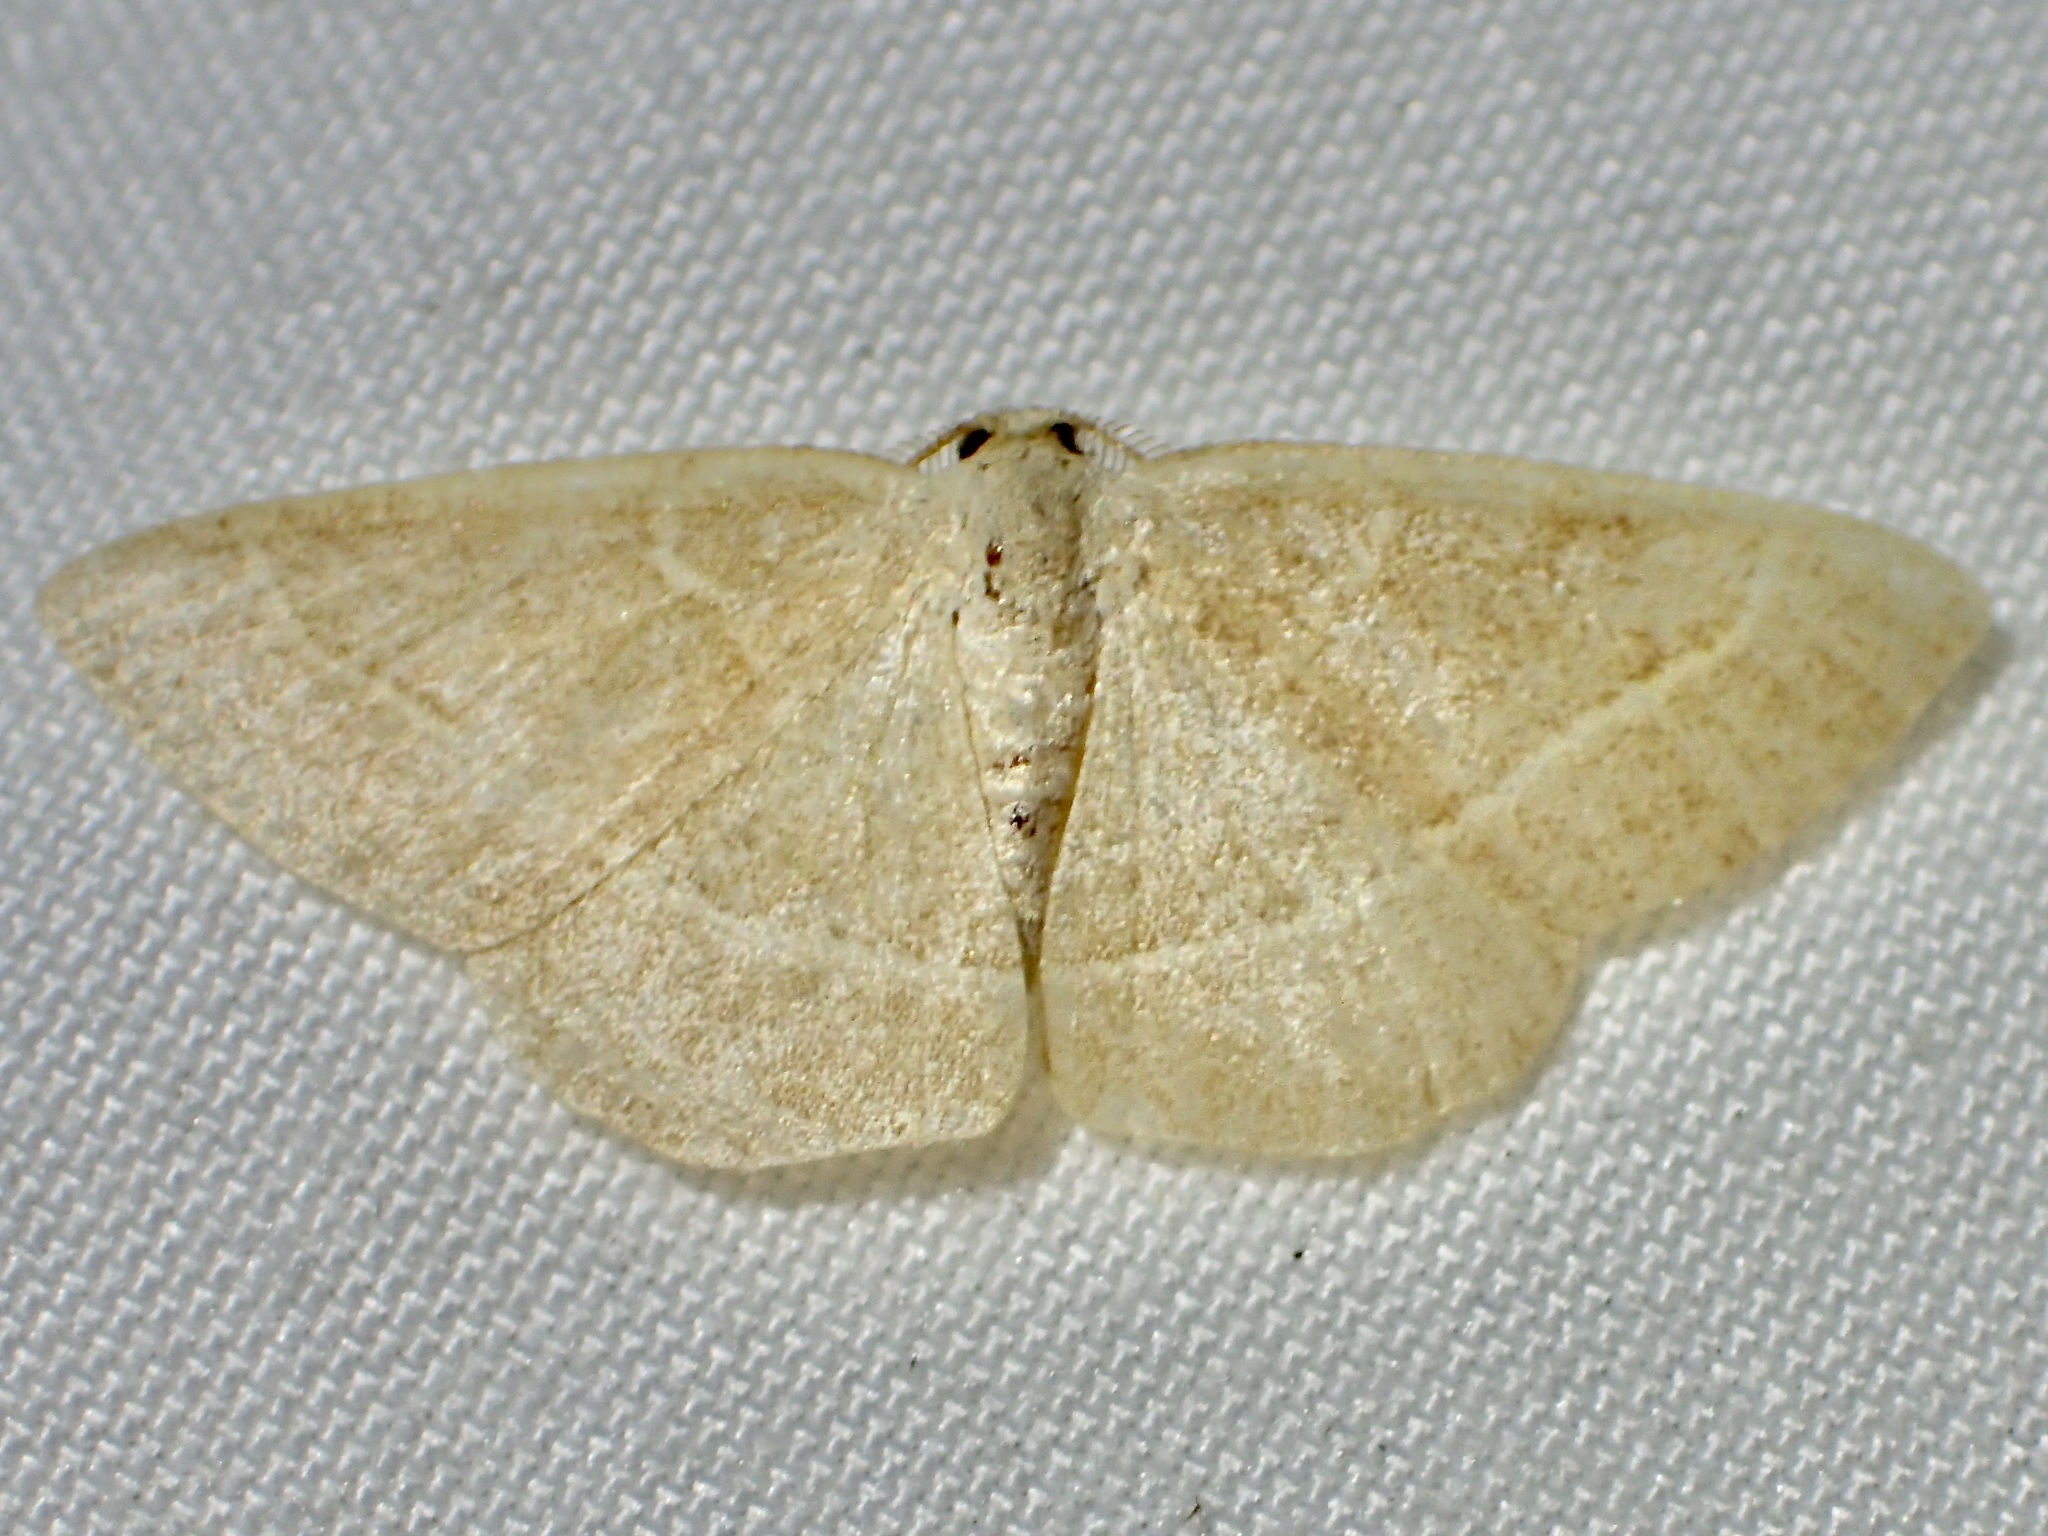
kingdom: Animalia
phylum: Arthropoda
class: Insecta
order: Lepidoptera
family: Geometridae
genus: Sperrya
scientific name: Sperrya cervula
